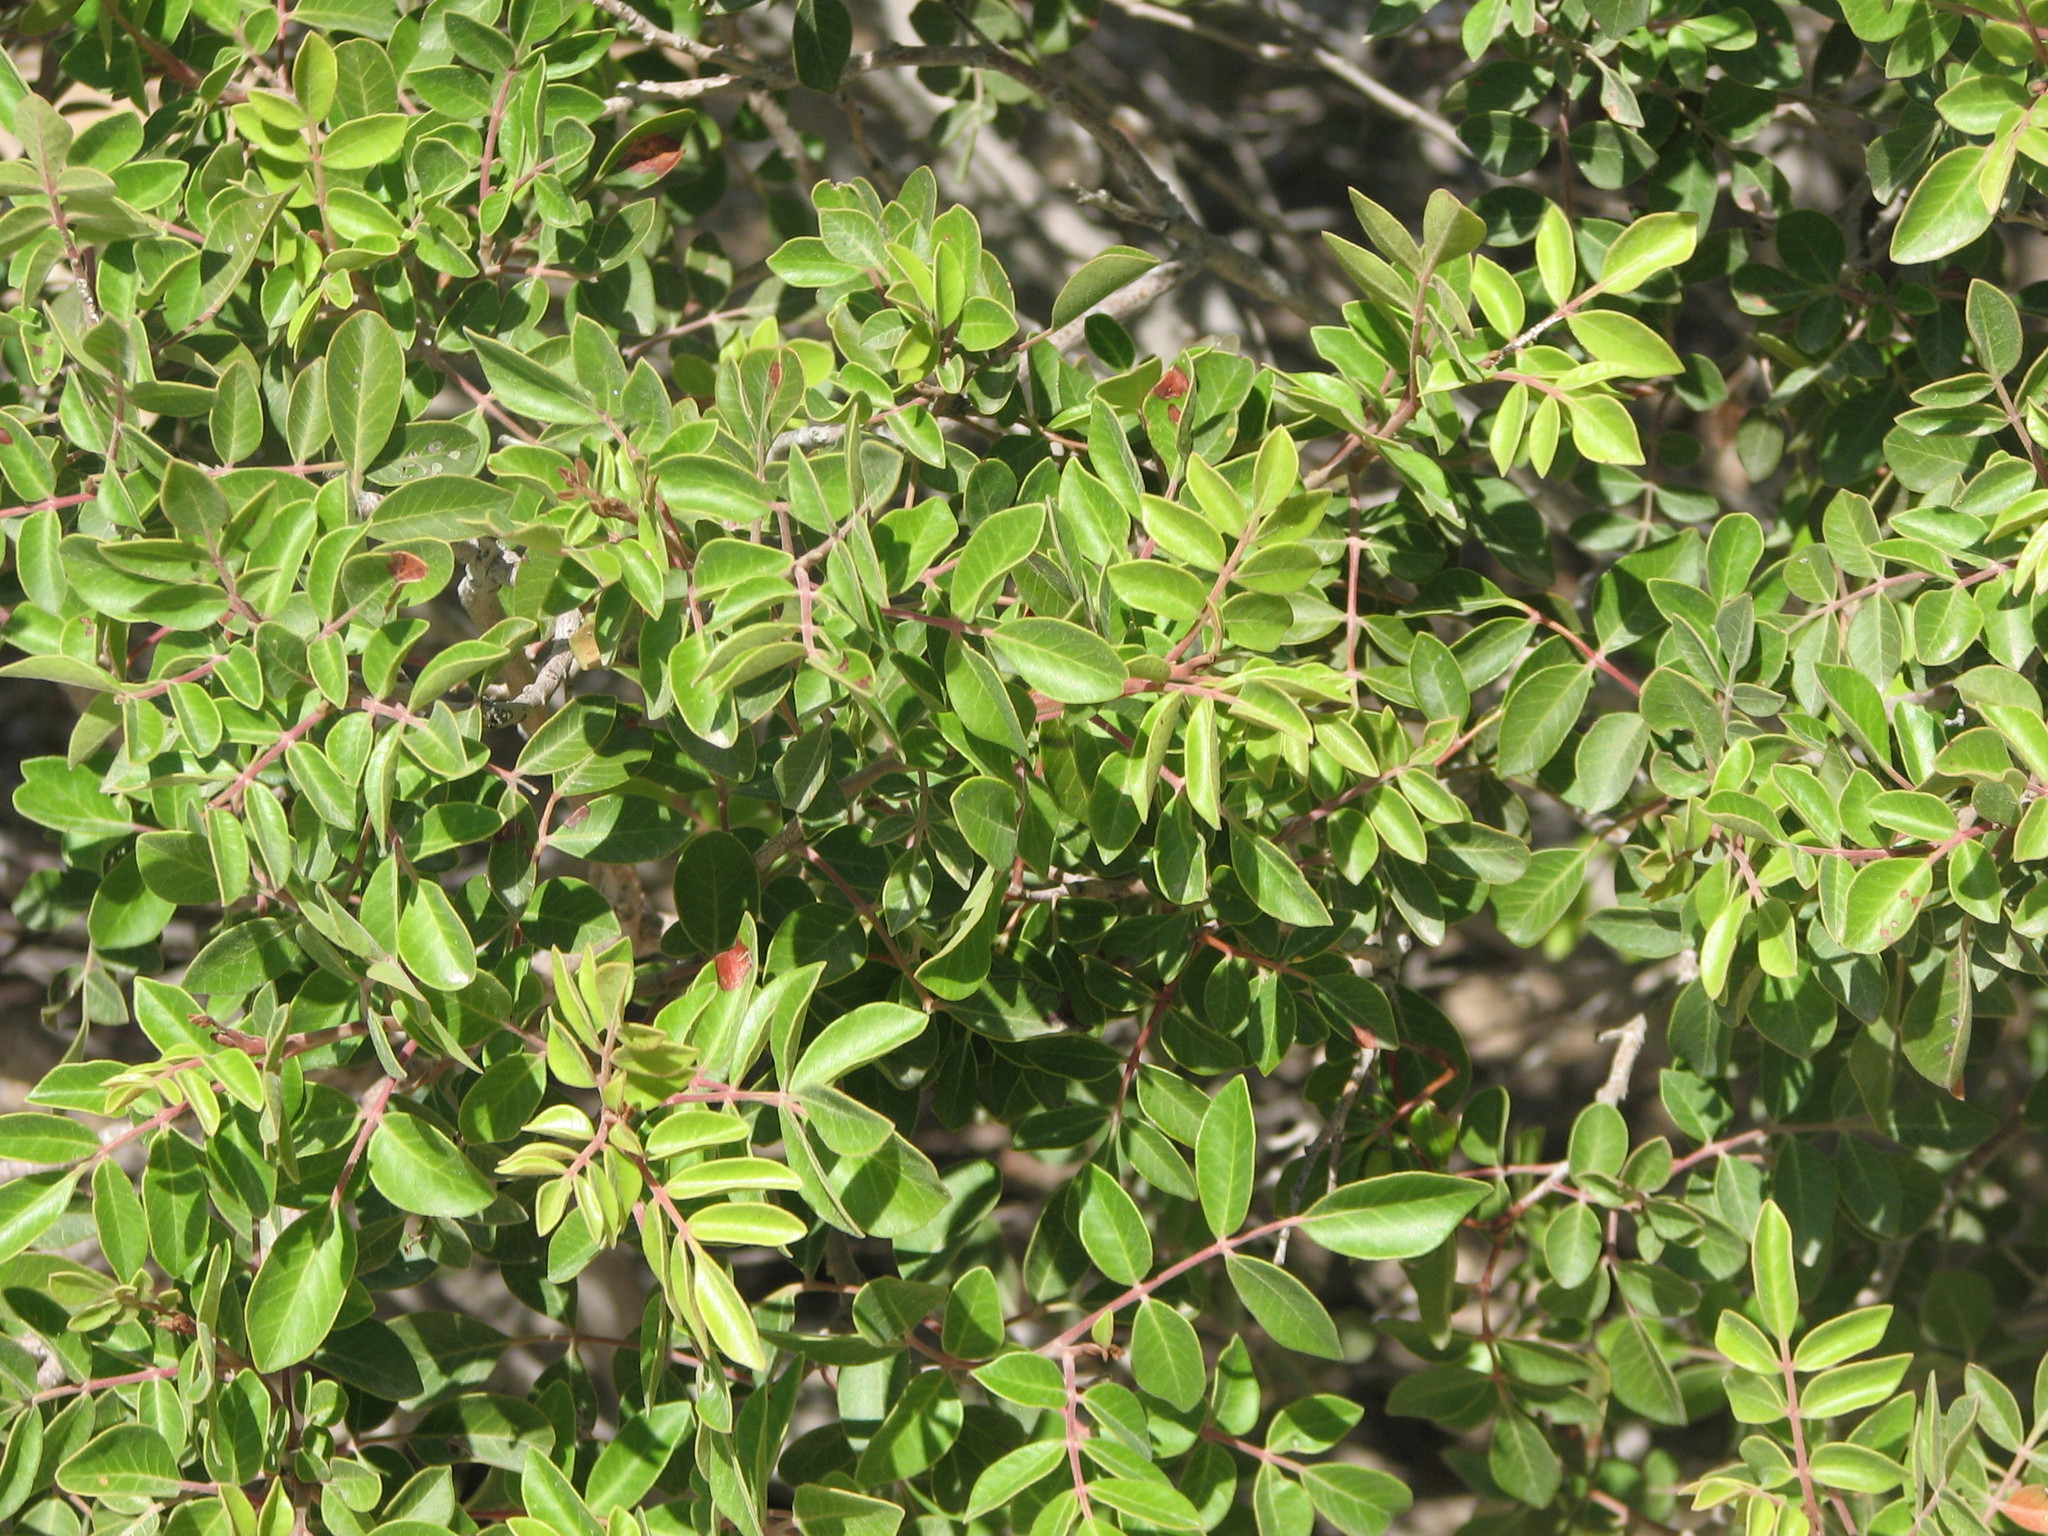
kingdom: Plantae
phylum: Tracheophyta
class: Magnoliopsida
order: Sapindales
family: Anacardiaceae
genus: Rhus
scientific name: Rhus virens
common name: Evergreen sumac
